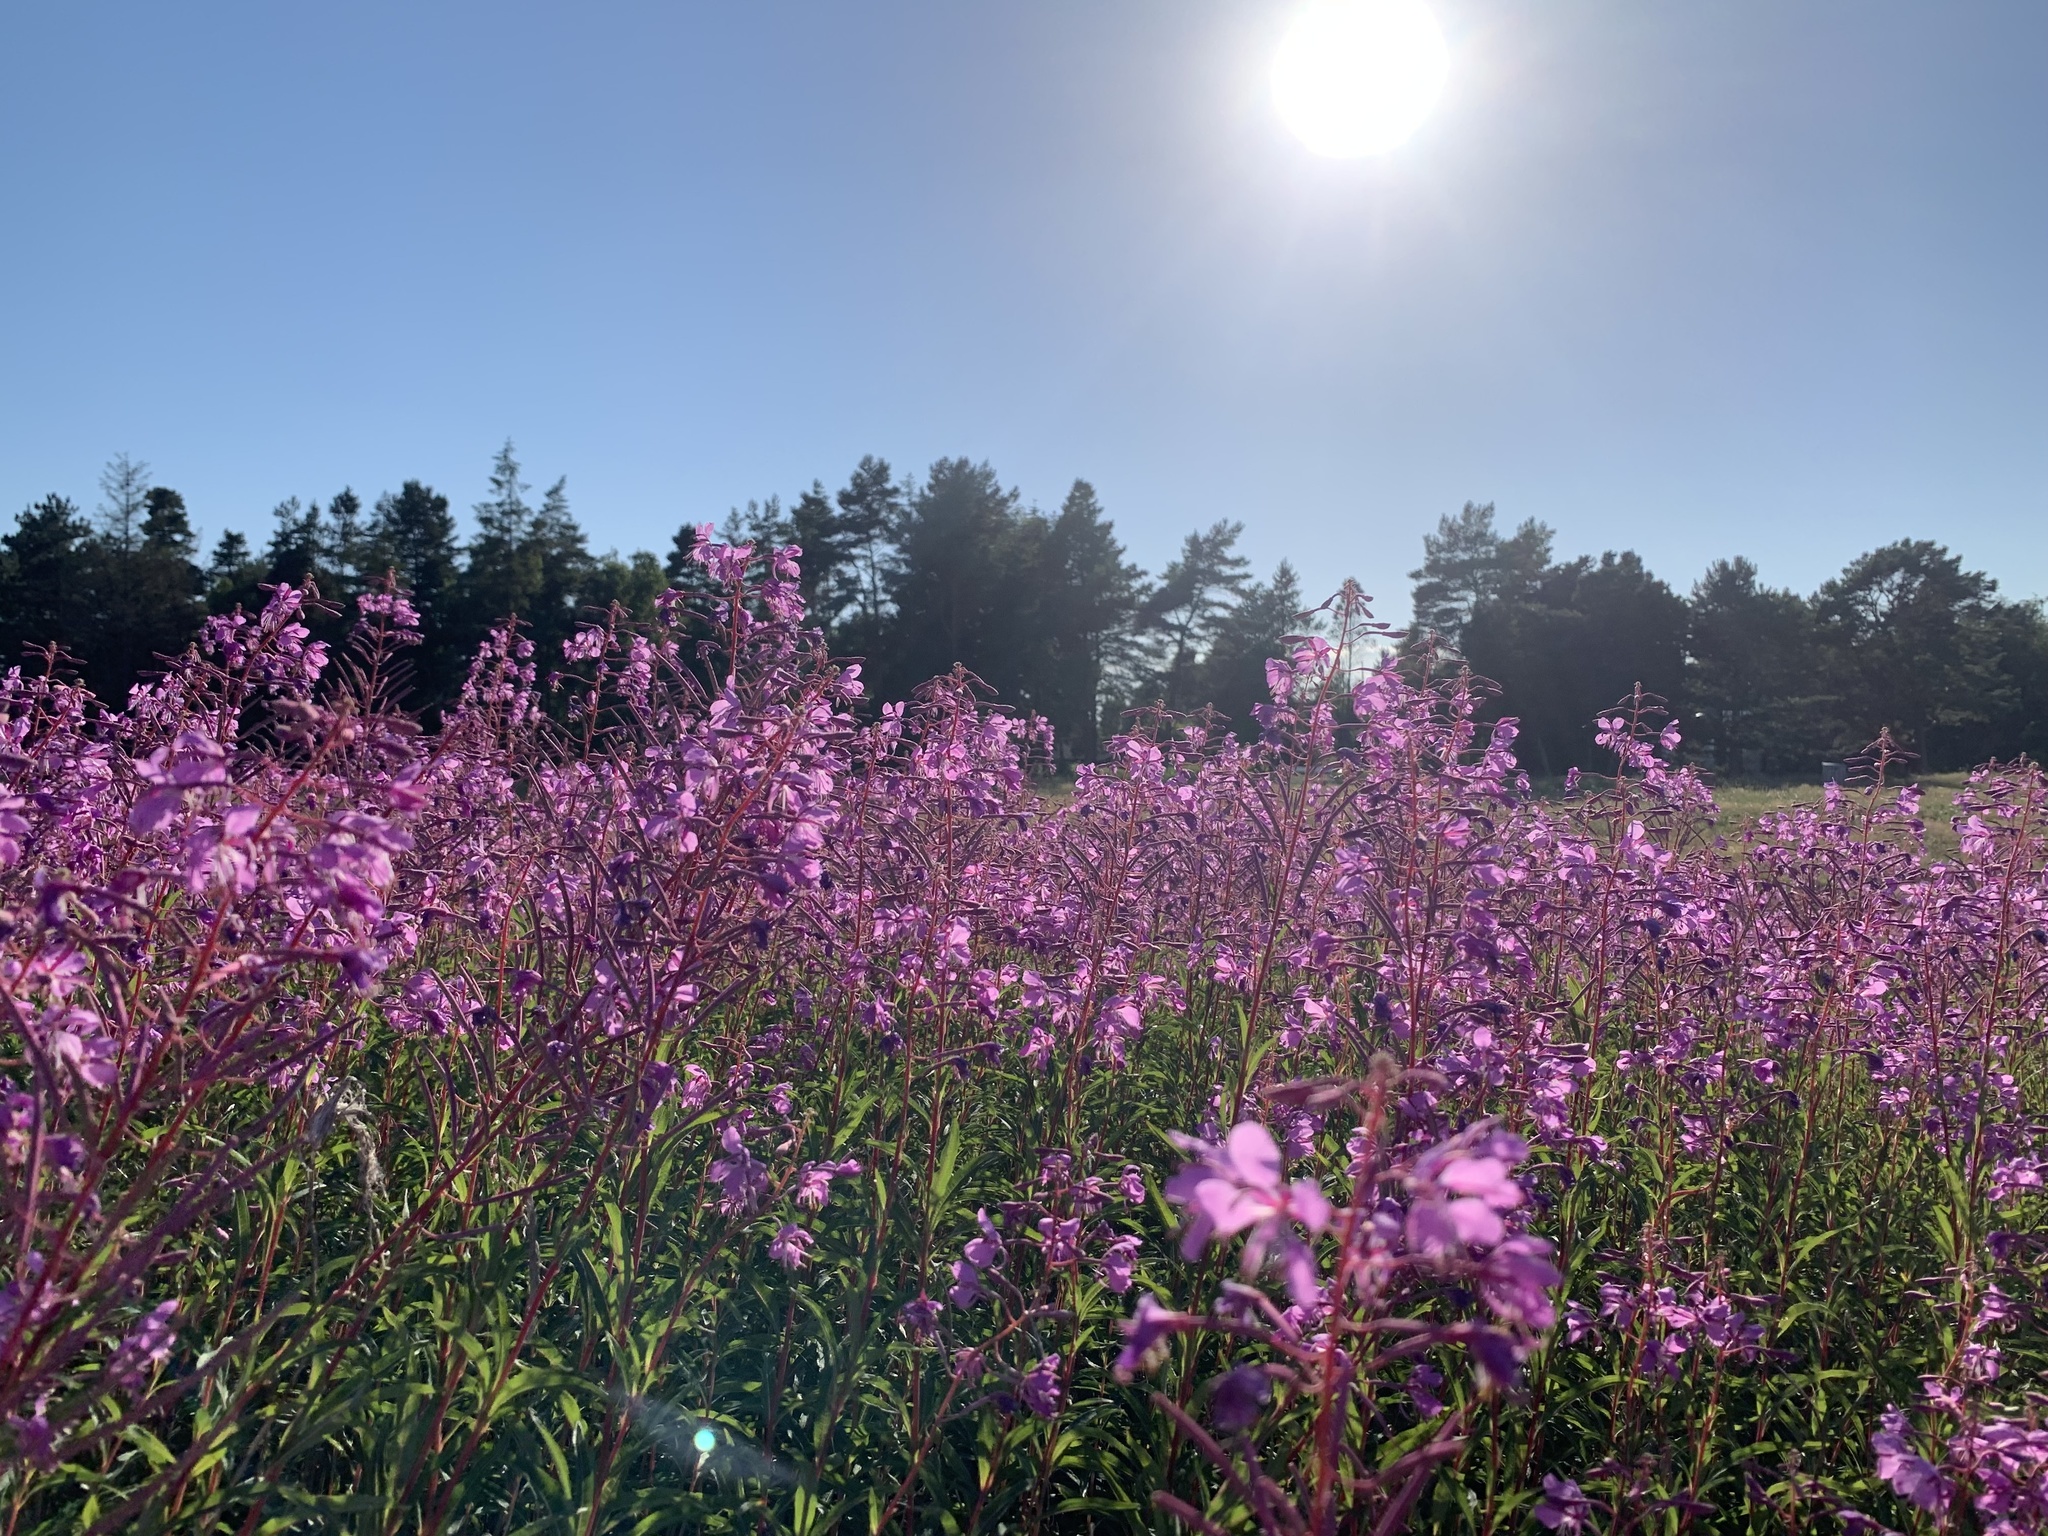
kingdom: Plantae
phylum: Tracheophyta
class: Magnoliopsida
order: Myrtales
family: Onagraceae
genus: Chamaenerion
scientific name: Chamaenerion angustifolium
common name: Fireweed
